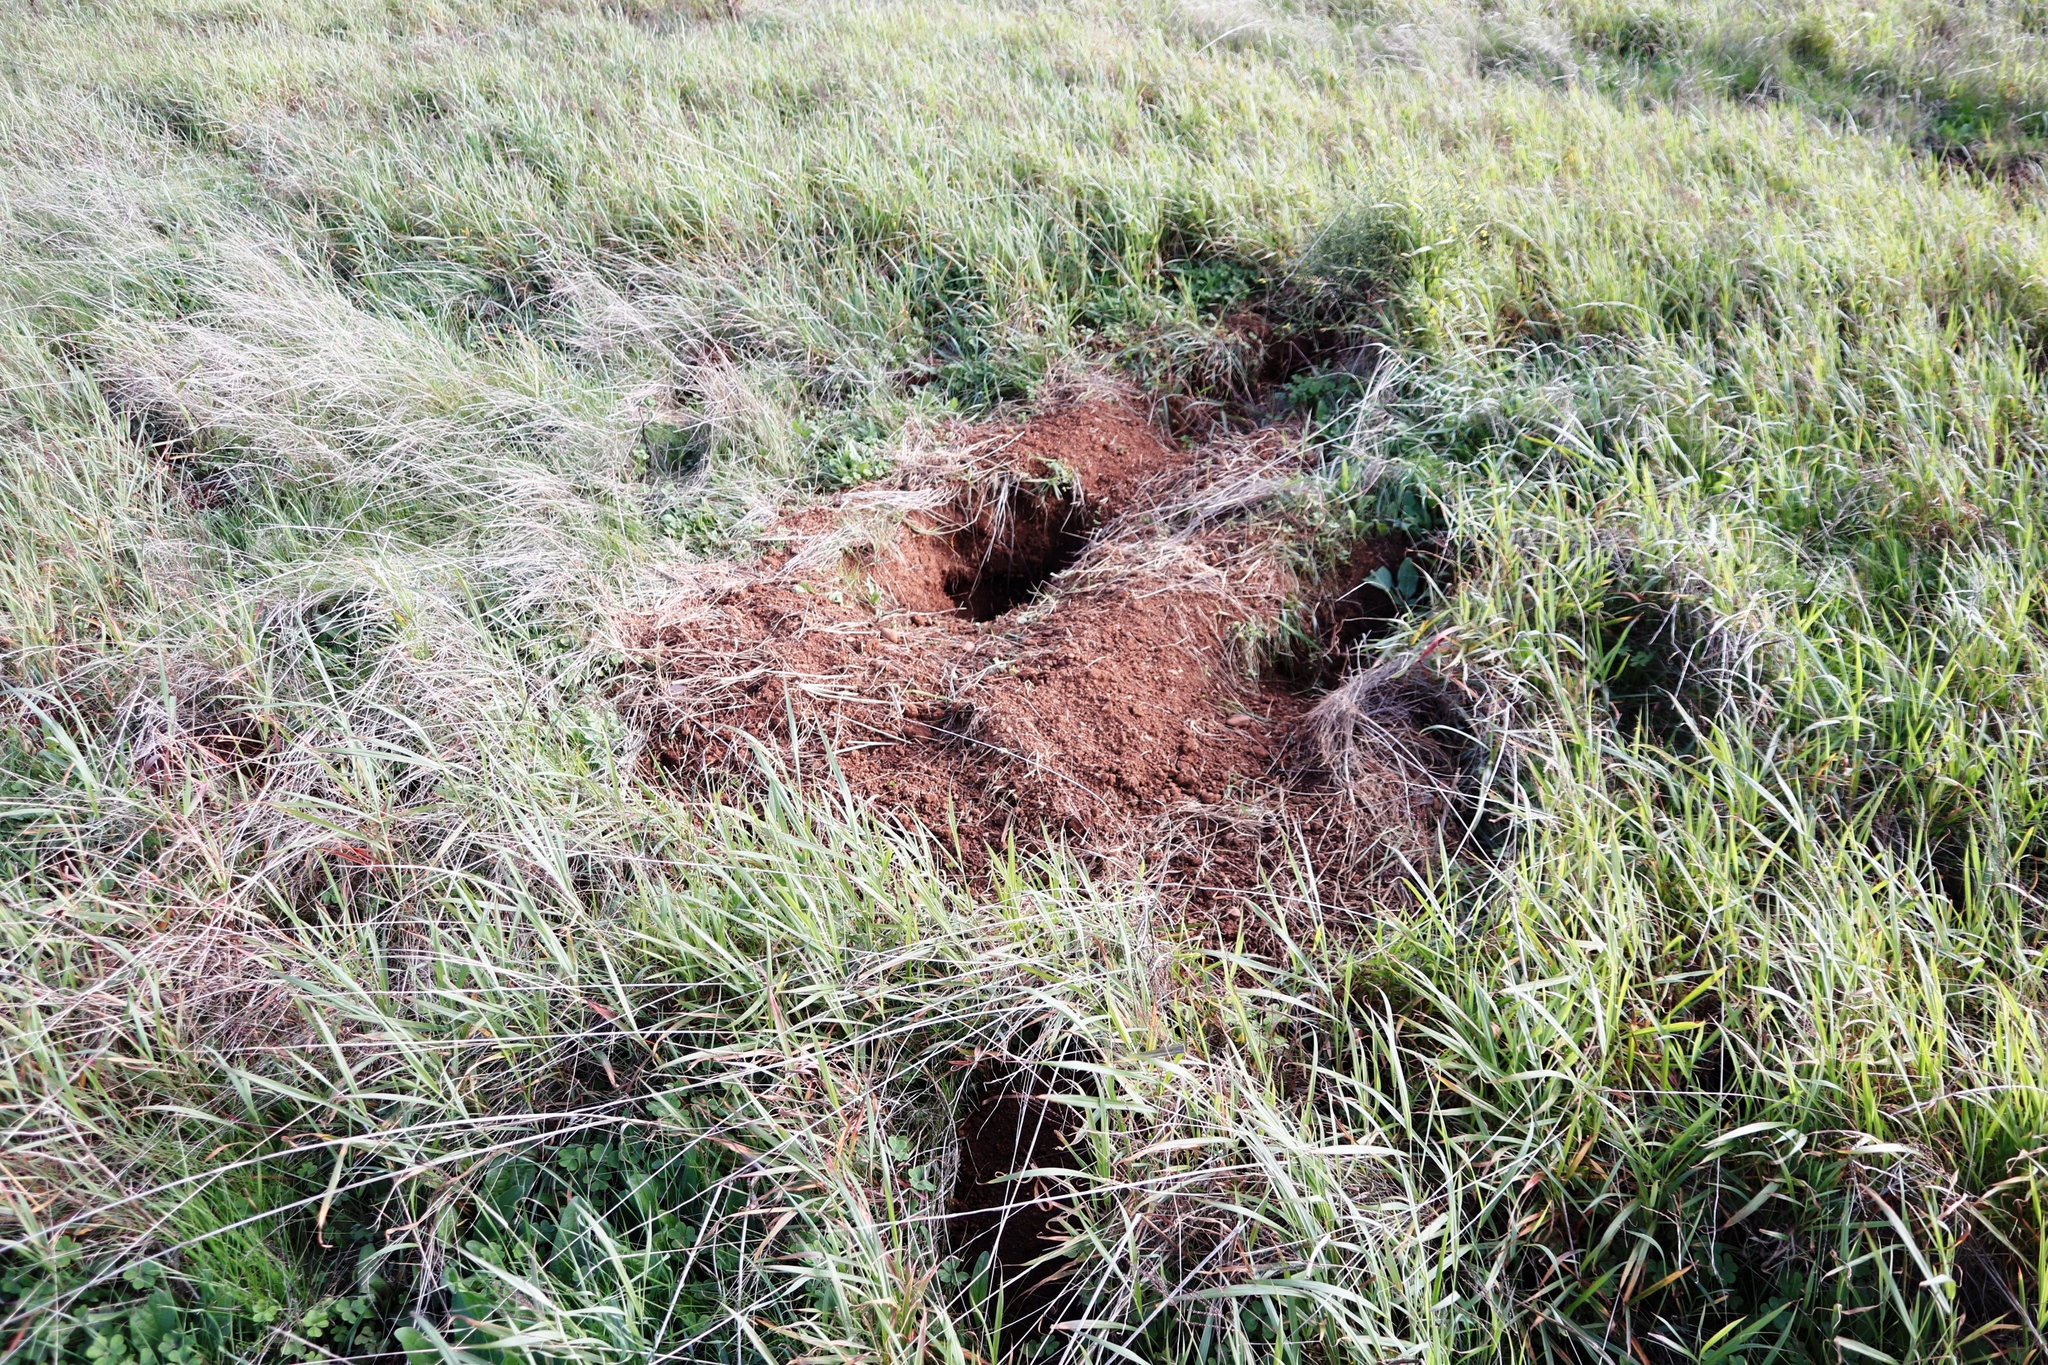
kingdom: Animalia
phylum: Chordata
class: Mammalia
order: Rodentia
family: Hystricidae
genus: Hystrix
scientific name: Hystrix africaeaustralis
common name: Cape porcupine
